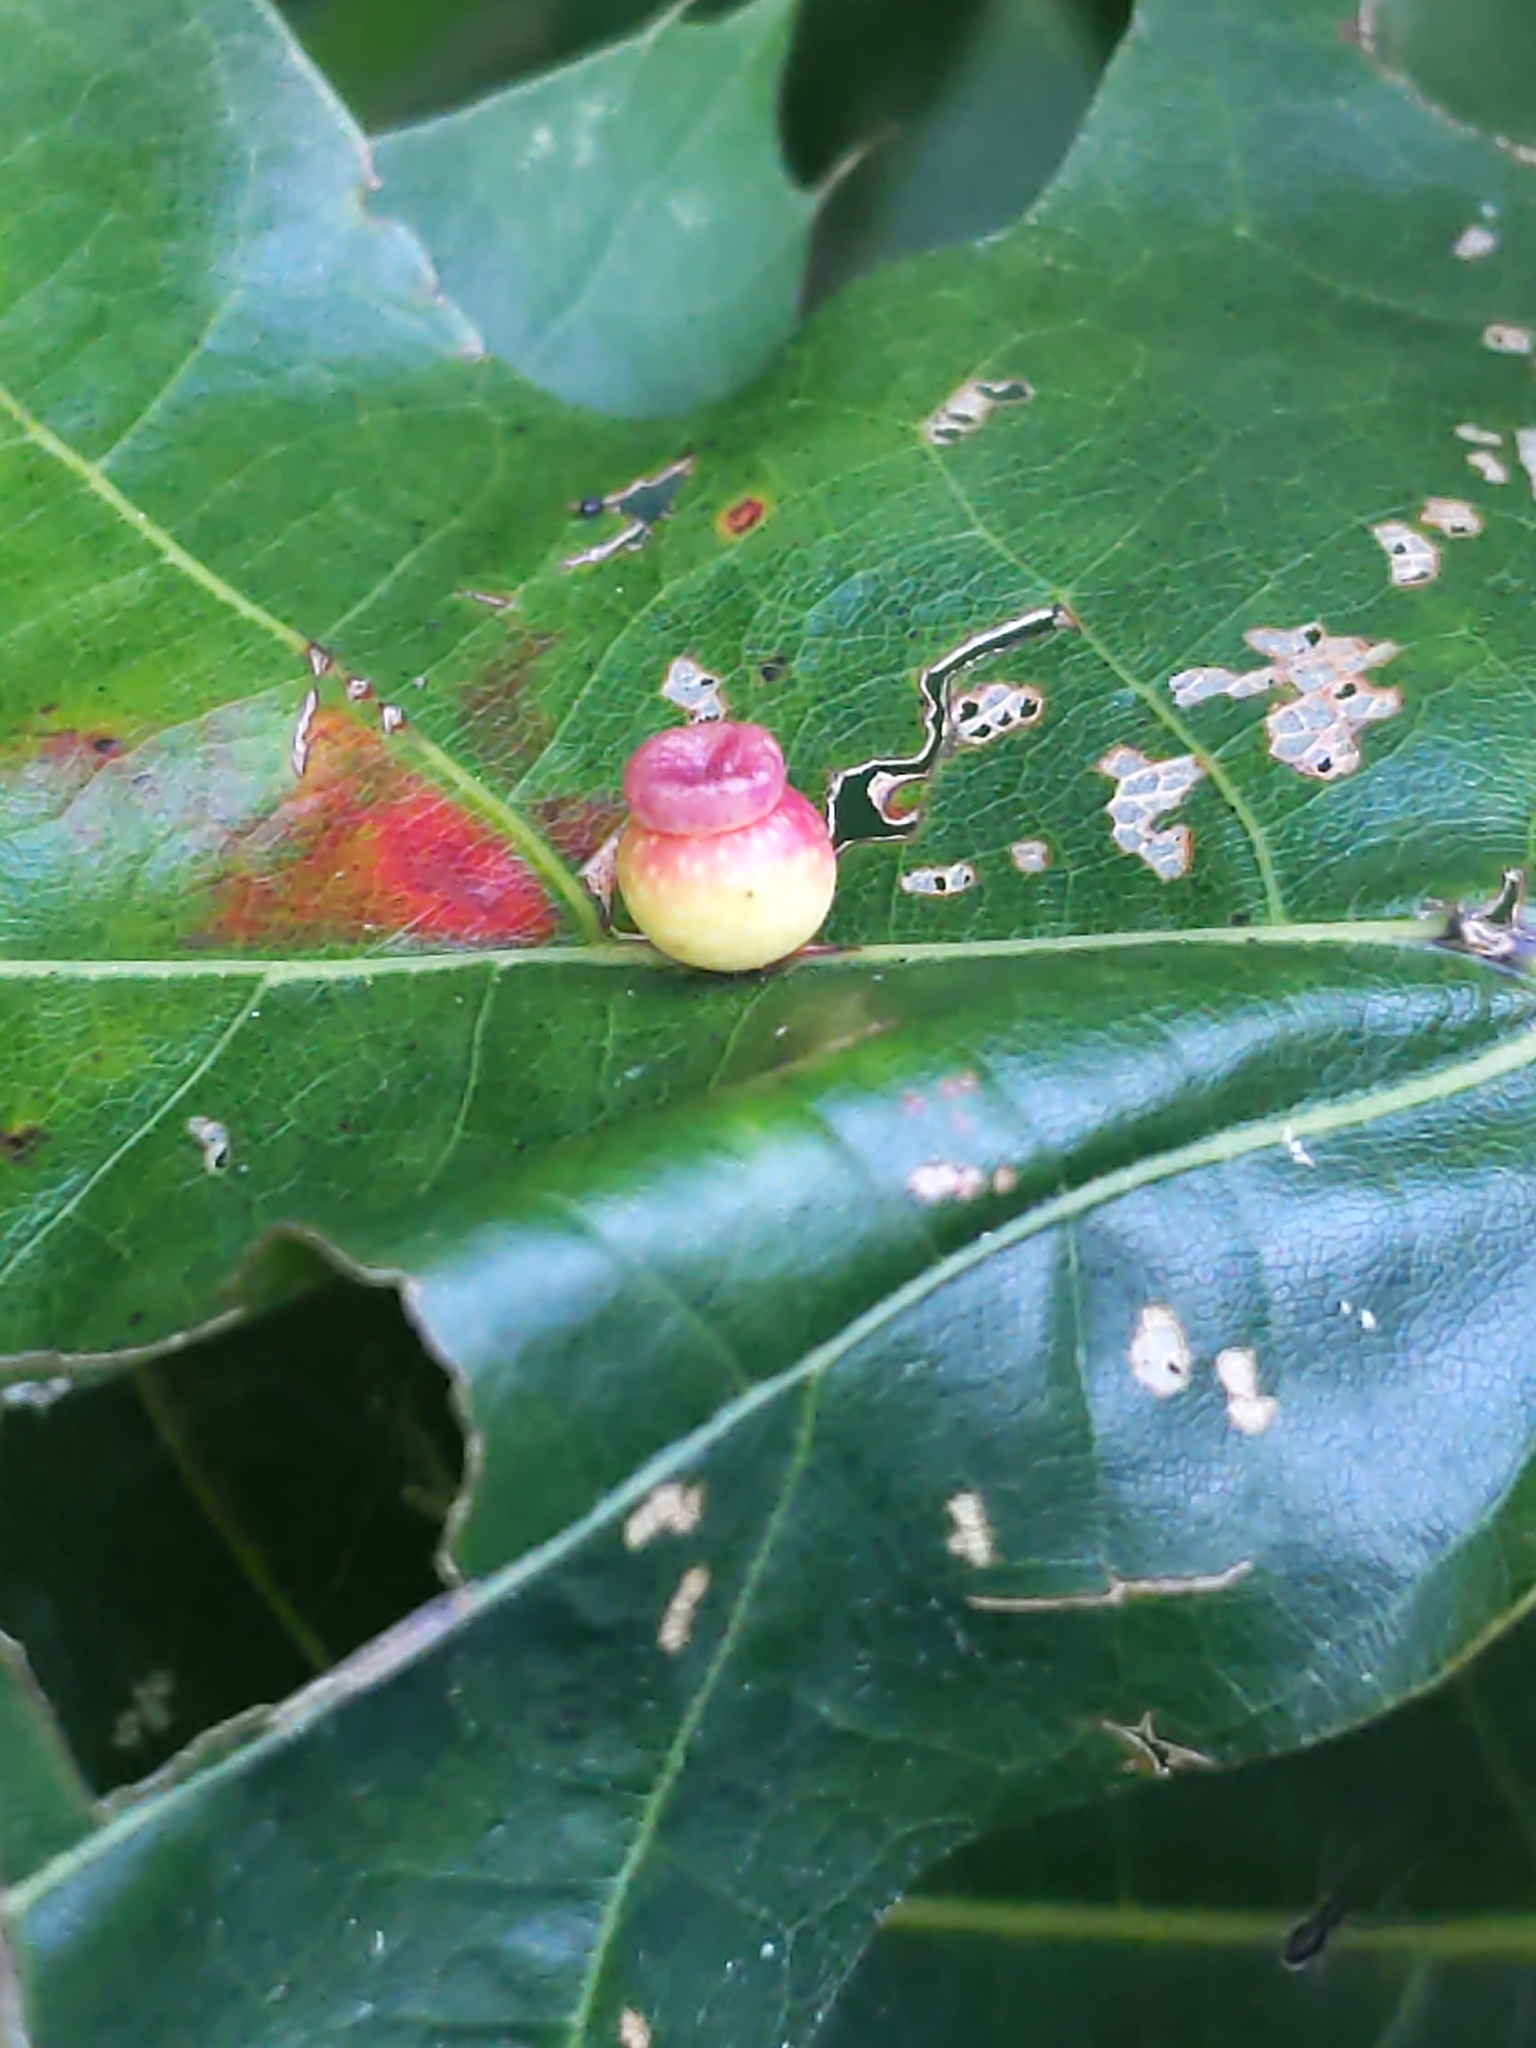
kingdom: Animalia
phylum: Arthropoda
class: Insecta
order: Hymenoptera
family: Cynipidae
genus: Kokkocynips
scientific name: Kokkocynips rileyi
